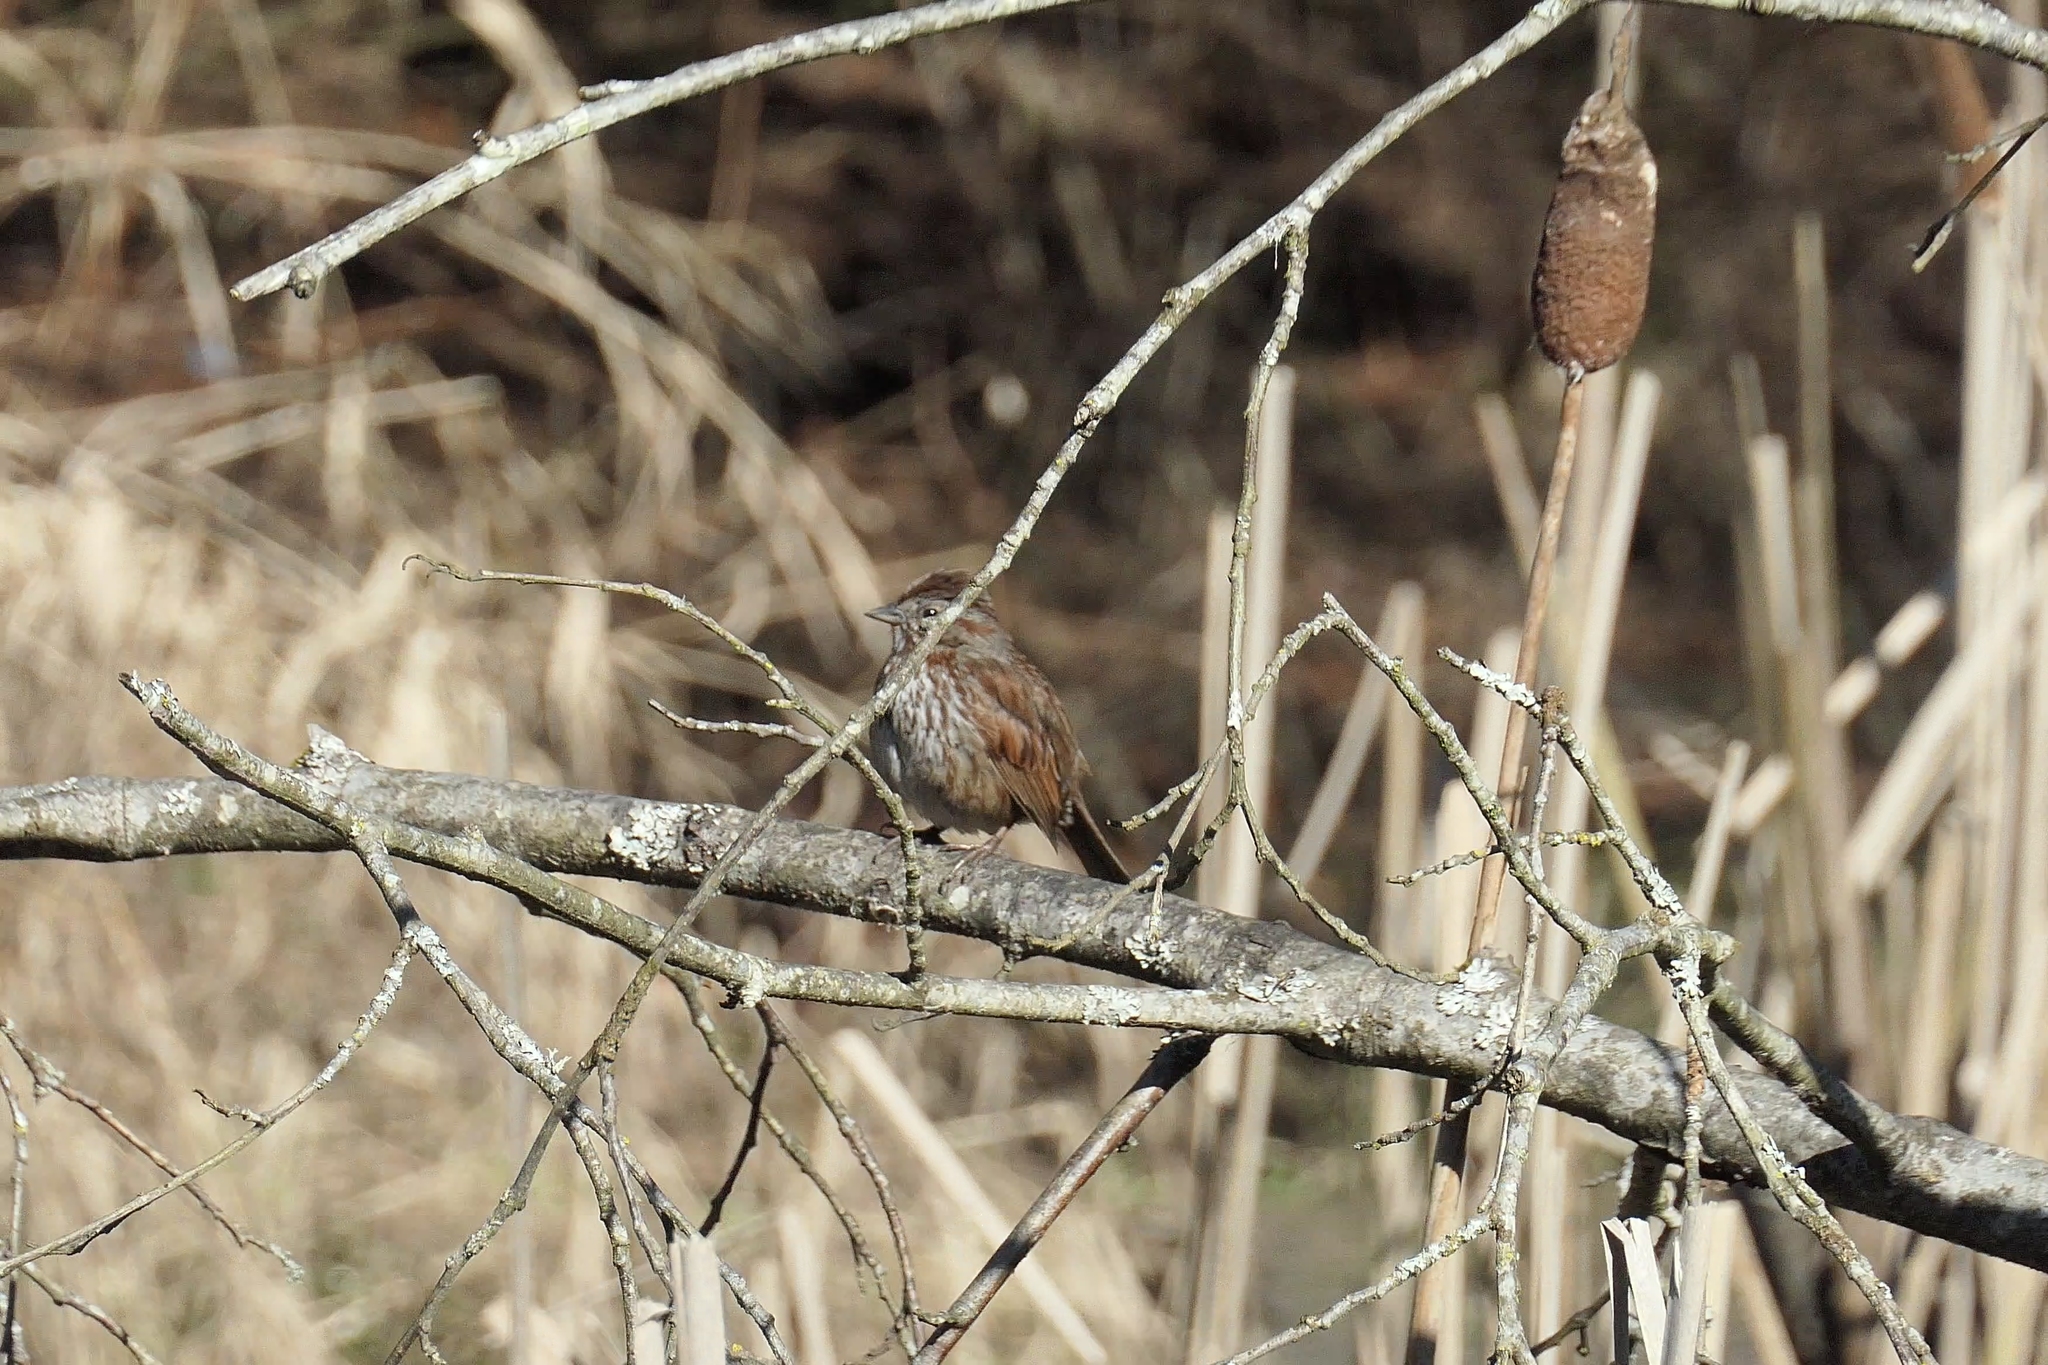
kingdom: Animalia
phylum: Chordata
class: Aves
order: Passeriformes
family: Passerellidae
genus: Melospiza
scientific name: Melospiza melodia
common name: Song sparrow
